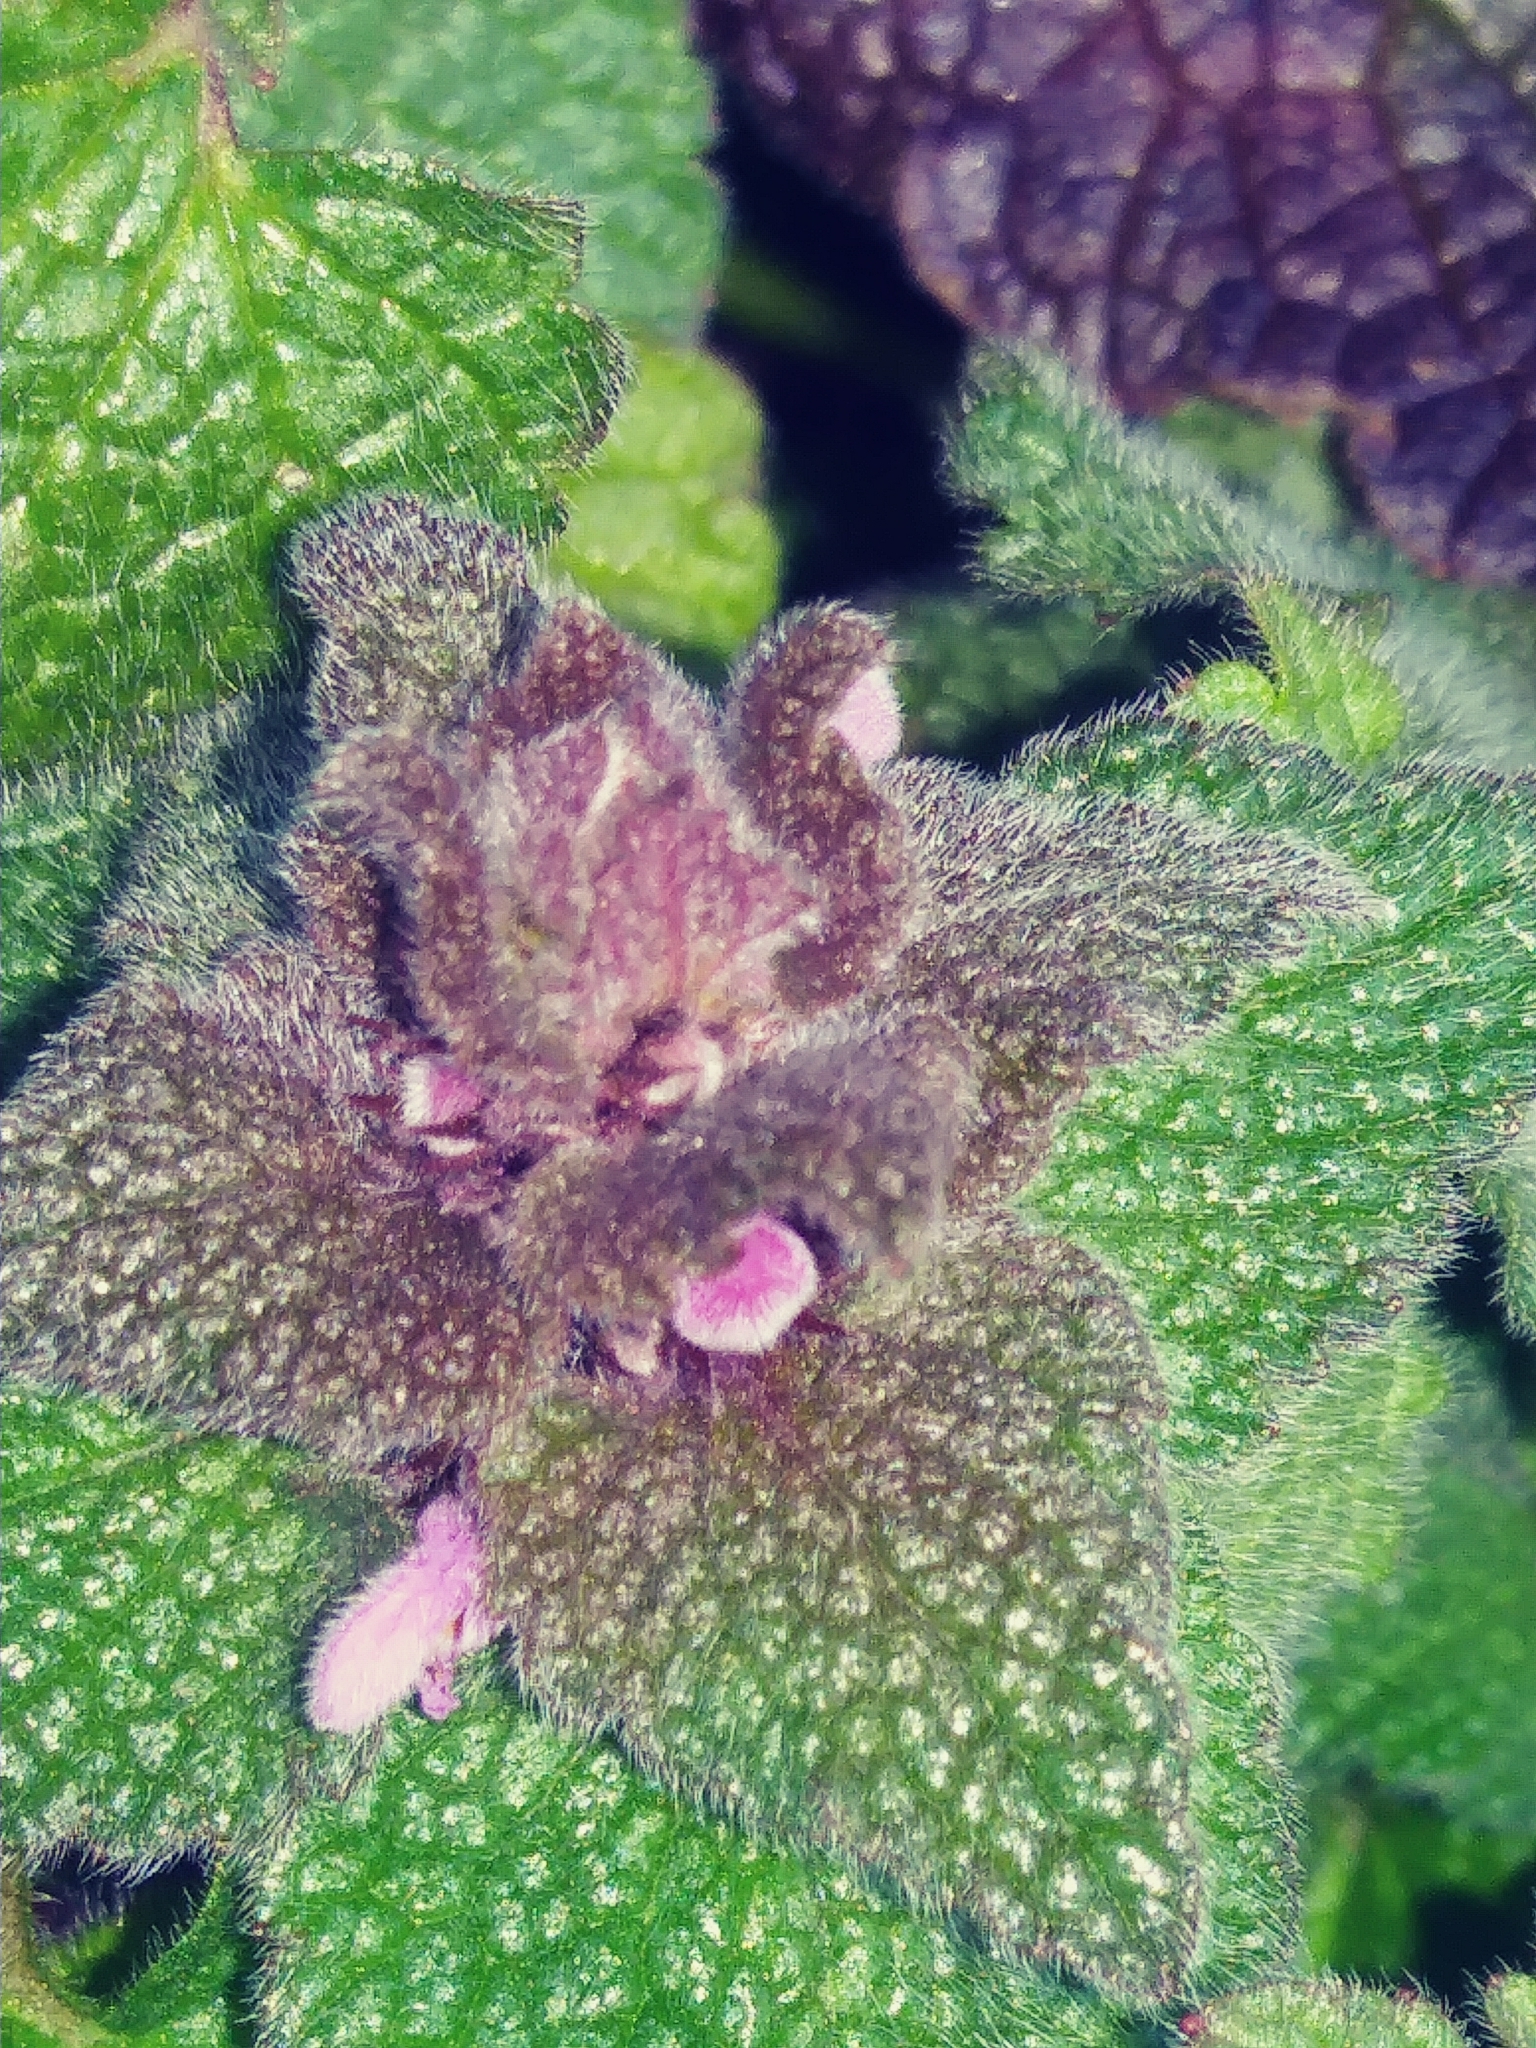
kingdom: Plantae
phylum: Tracheophyta
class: Magnoliopsida
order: Lamiales
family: Lamiaceae
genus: Lamium
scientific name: Lamium purpureum
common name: Red dead-nettle
